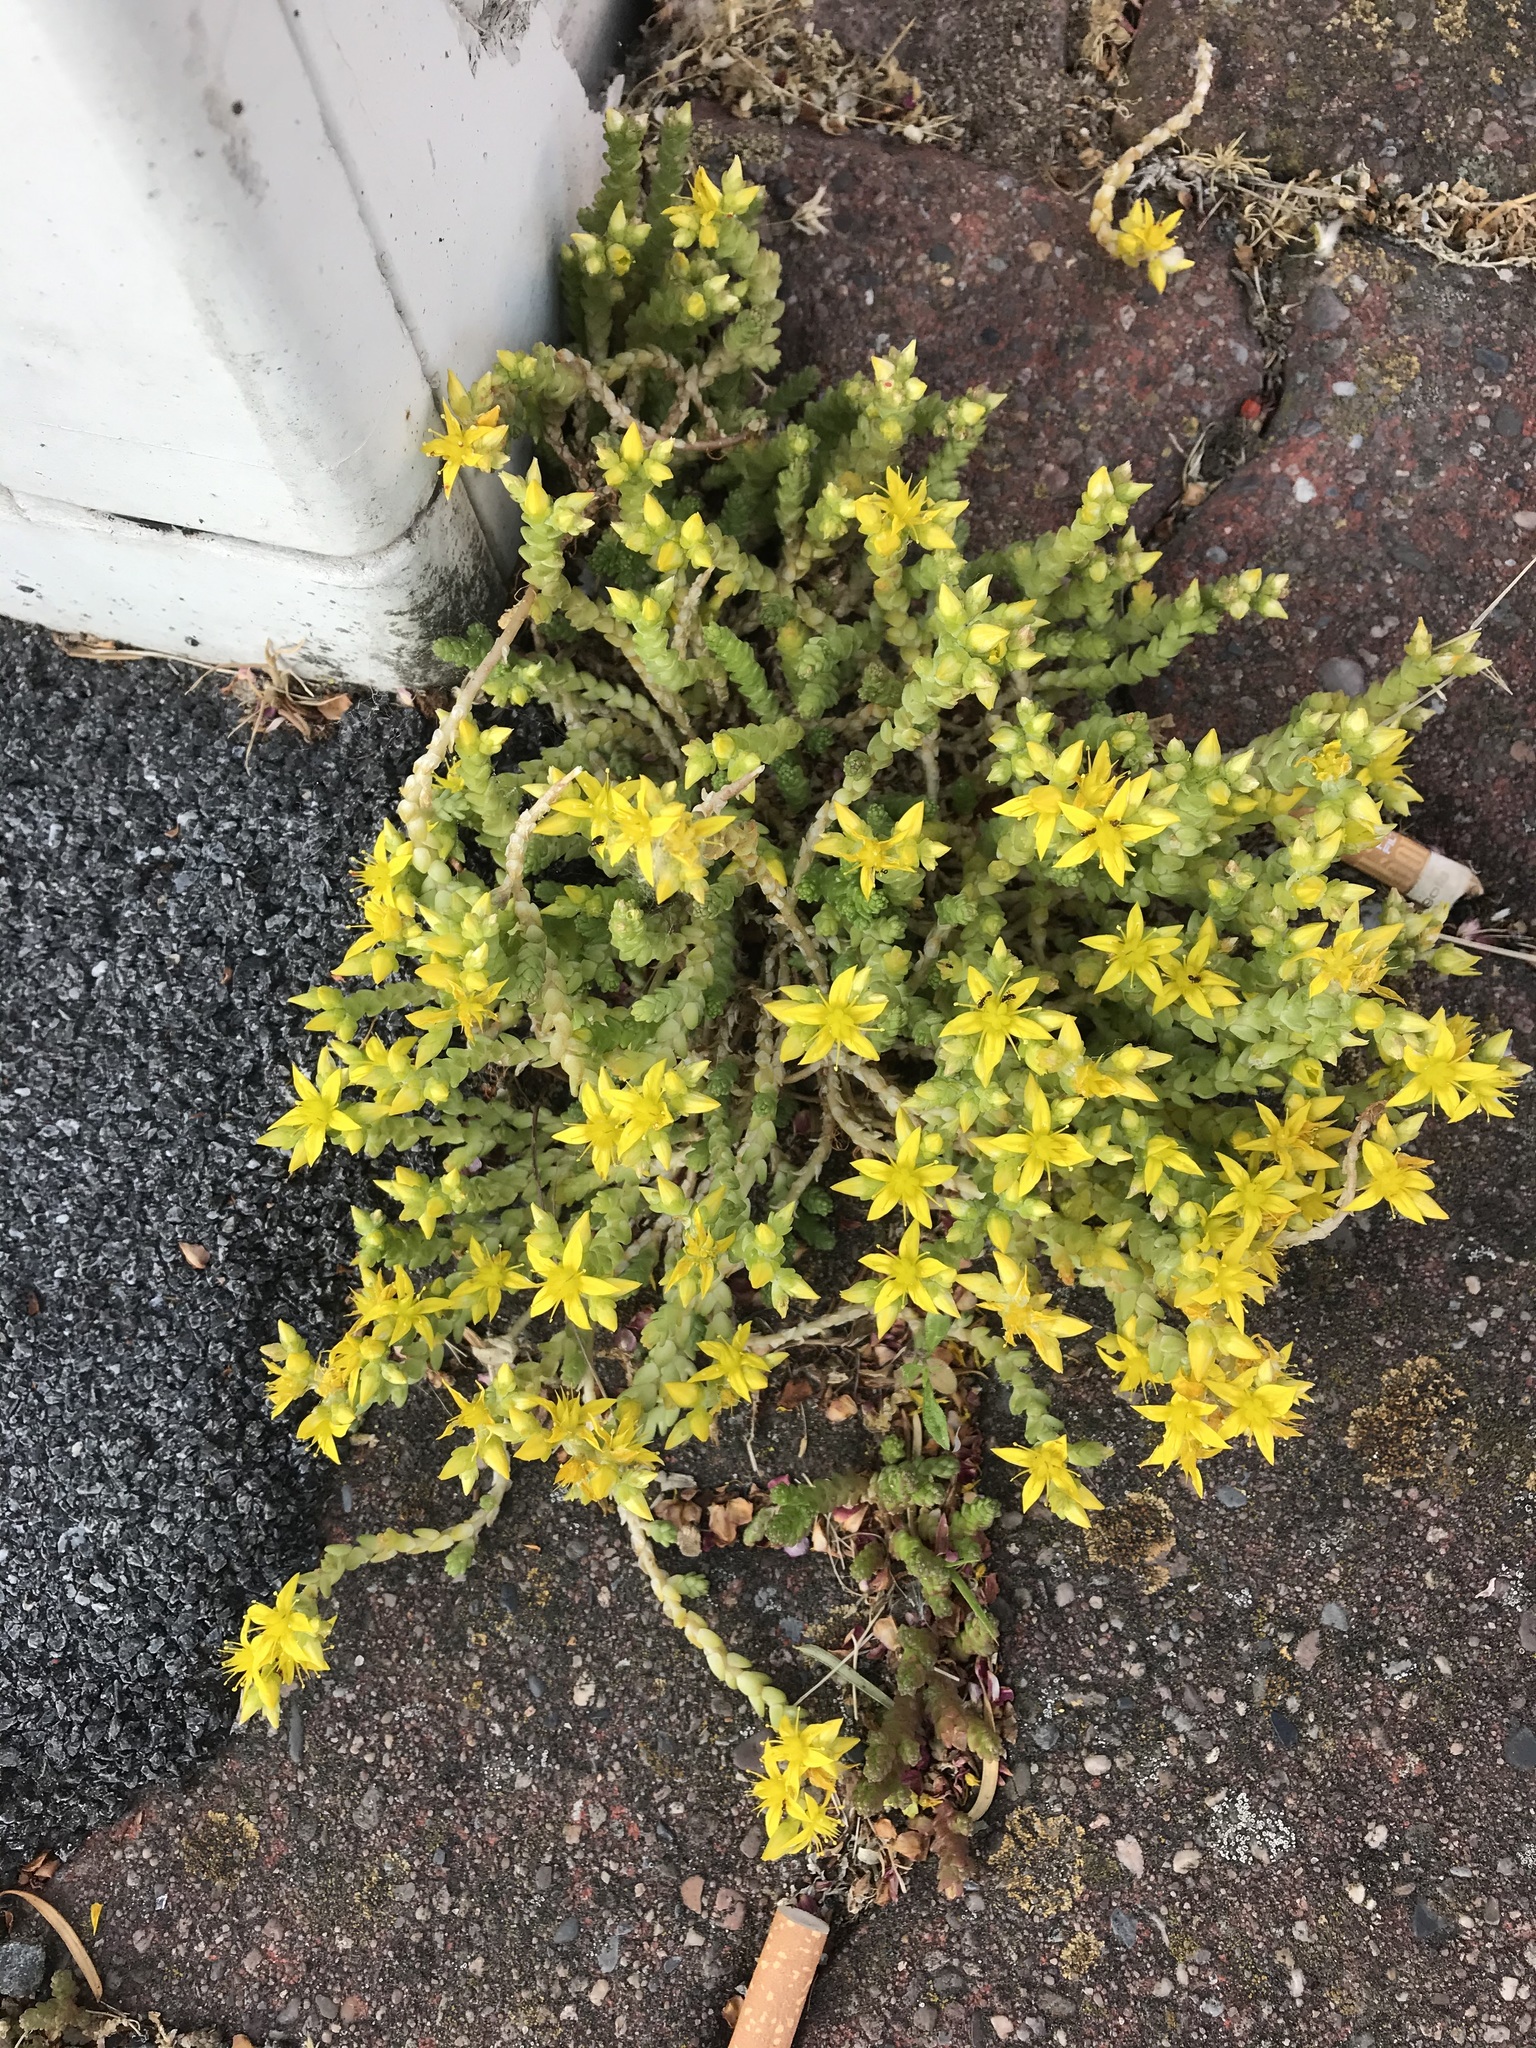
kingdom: Plantae
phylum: Tracheophyta
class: Magnoliopsida
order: Saxifragales
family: Crassulaceae
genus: Sedum
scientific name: Sedum acre
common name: Biting stonecrop
